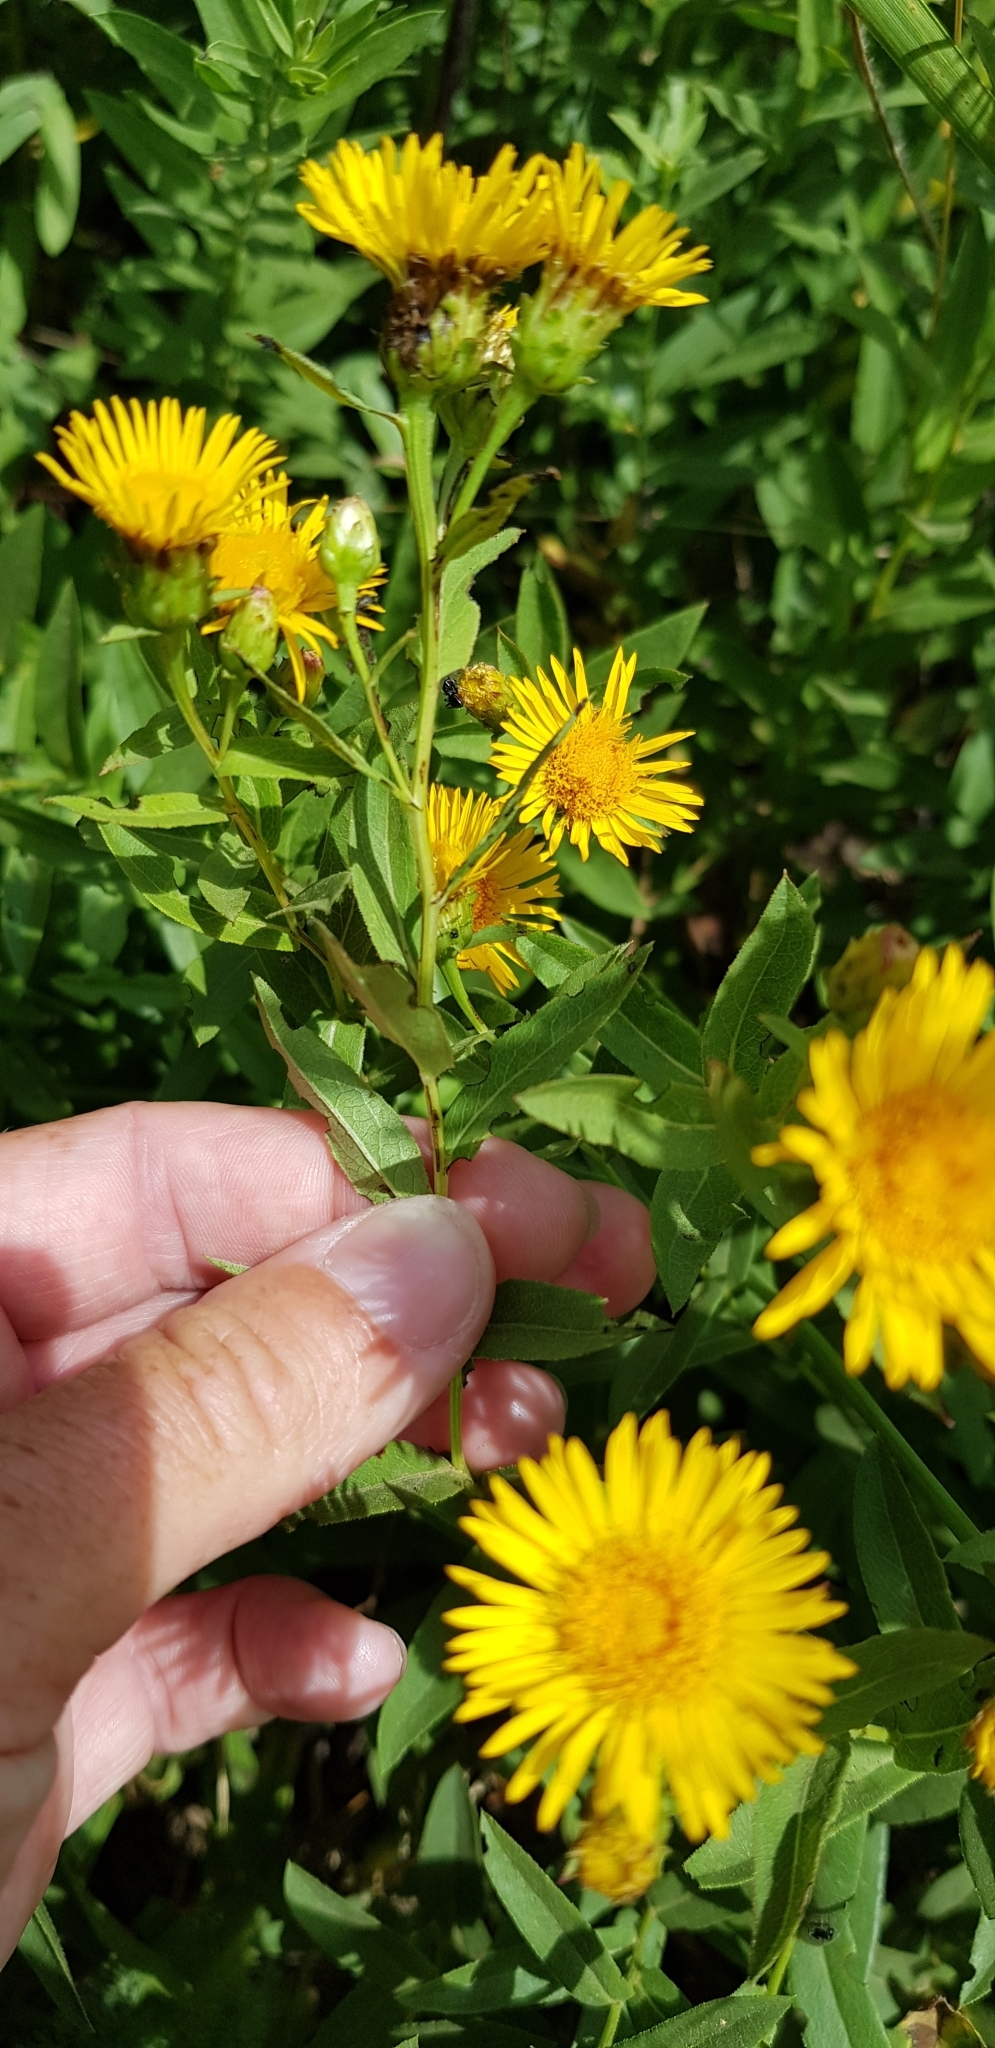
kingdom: Plantae
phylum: Tracheophyta
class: Magnoliopsida
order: Asterales
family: Asteraceae
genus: Pentanema
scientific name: Pentanema salicinum
